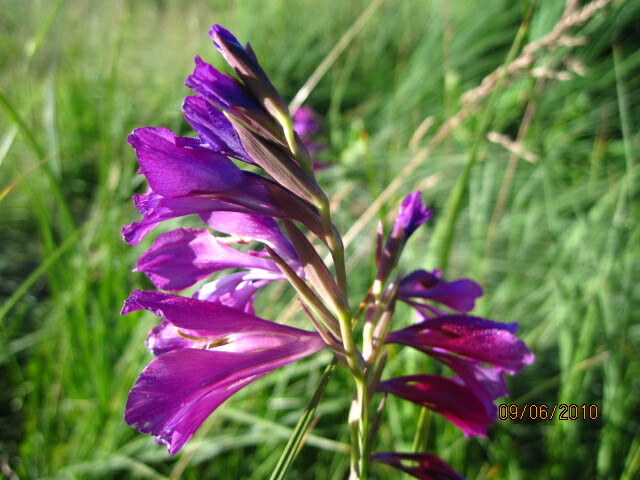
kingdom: Plantae
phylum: Tracheophyta
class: Liliopsida
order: Asparagales
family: Iridaceae
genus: Gladiolus
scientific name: Gladiolus tenuis
